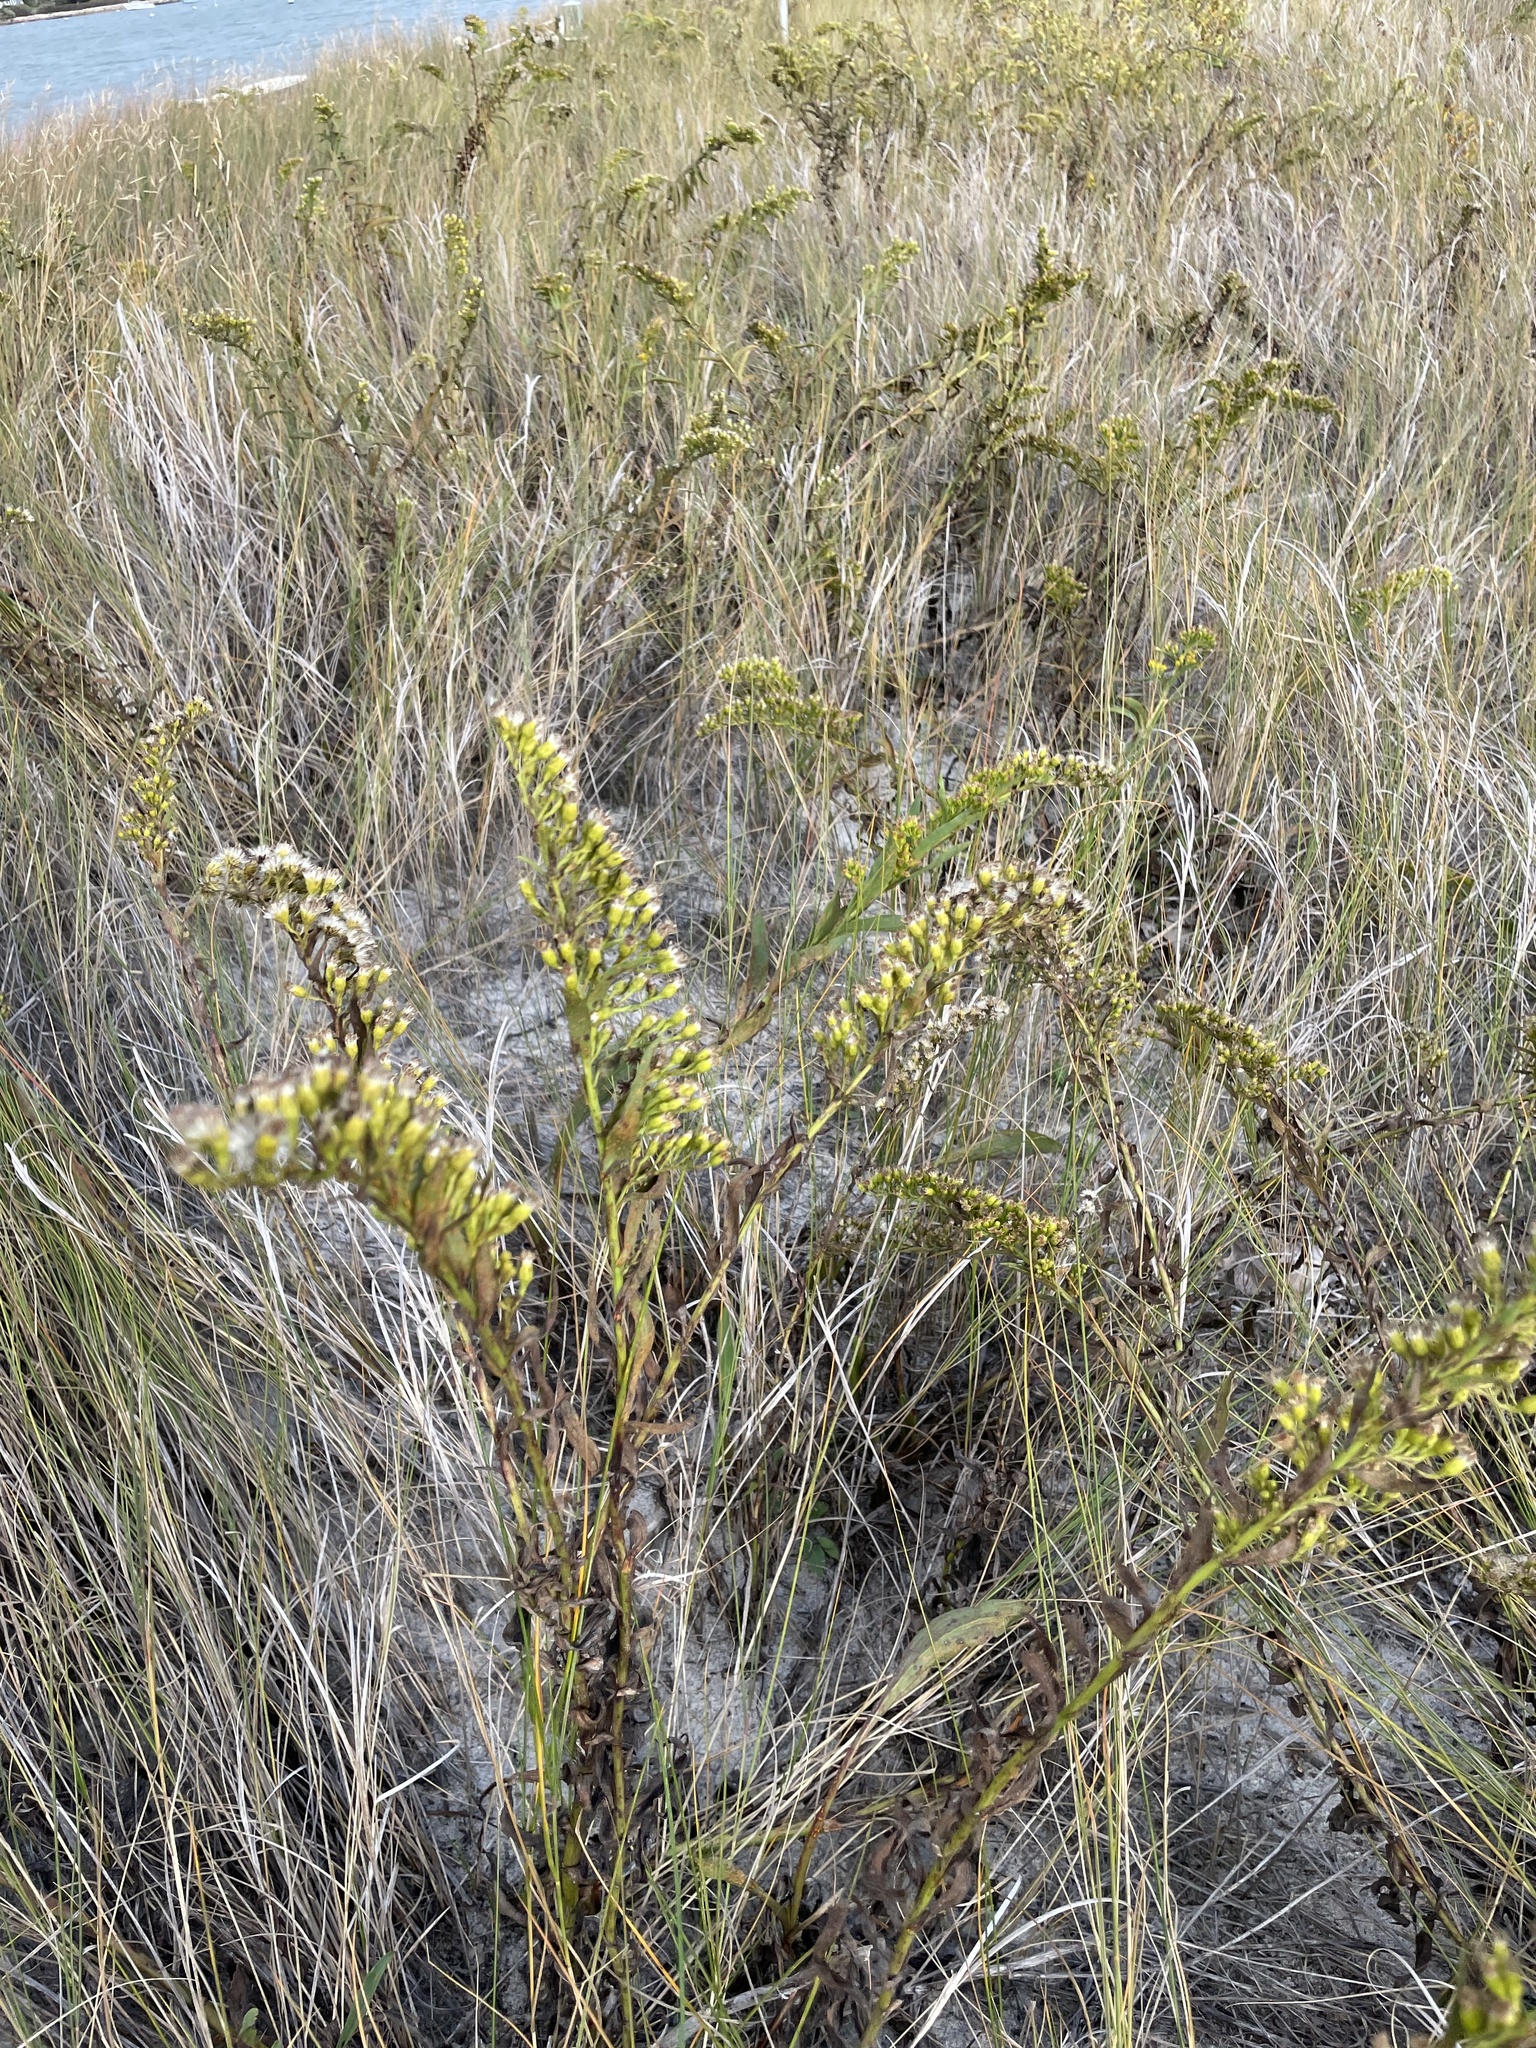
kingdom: Plantae
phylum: Tracheophyta
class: Magnoliopsida
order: Asterales
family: Asteraceae
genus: Solidago
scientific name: Solidago sempervirens
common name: Salt-marsh goldenrod
